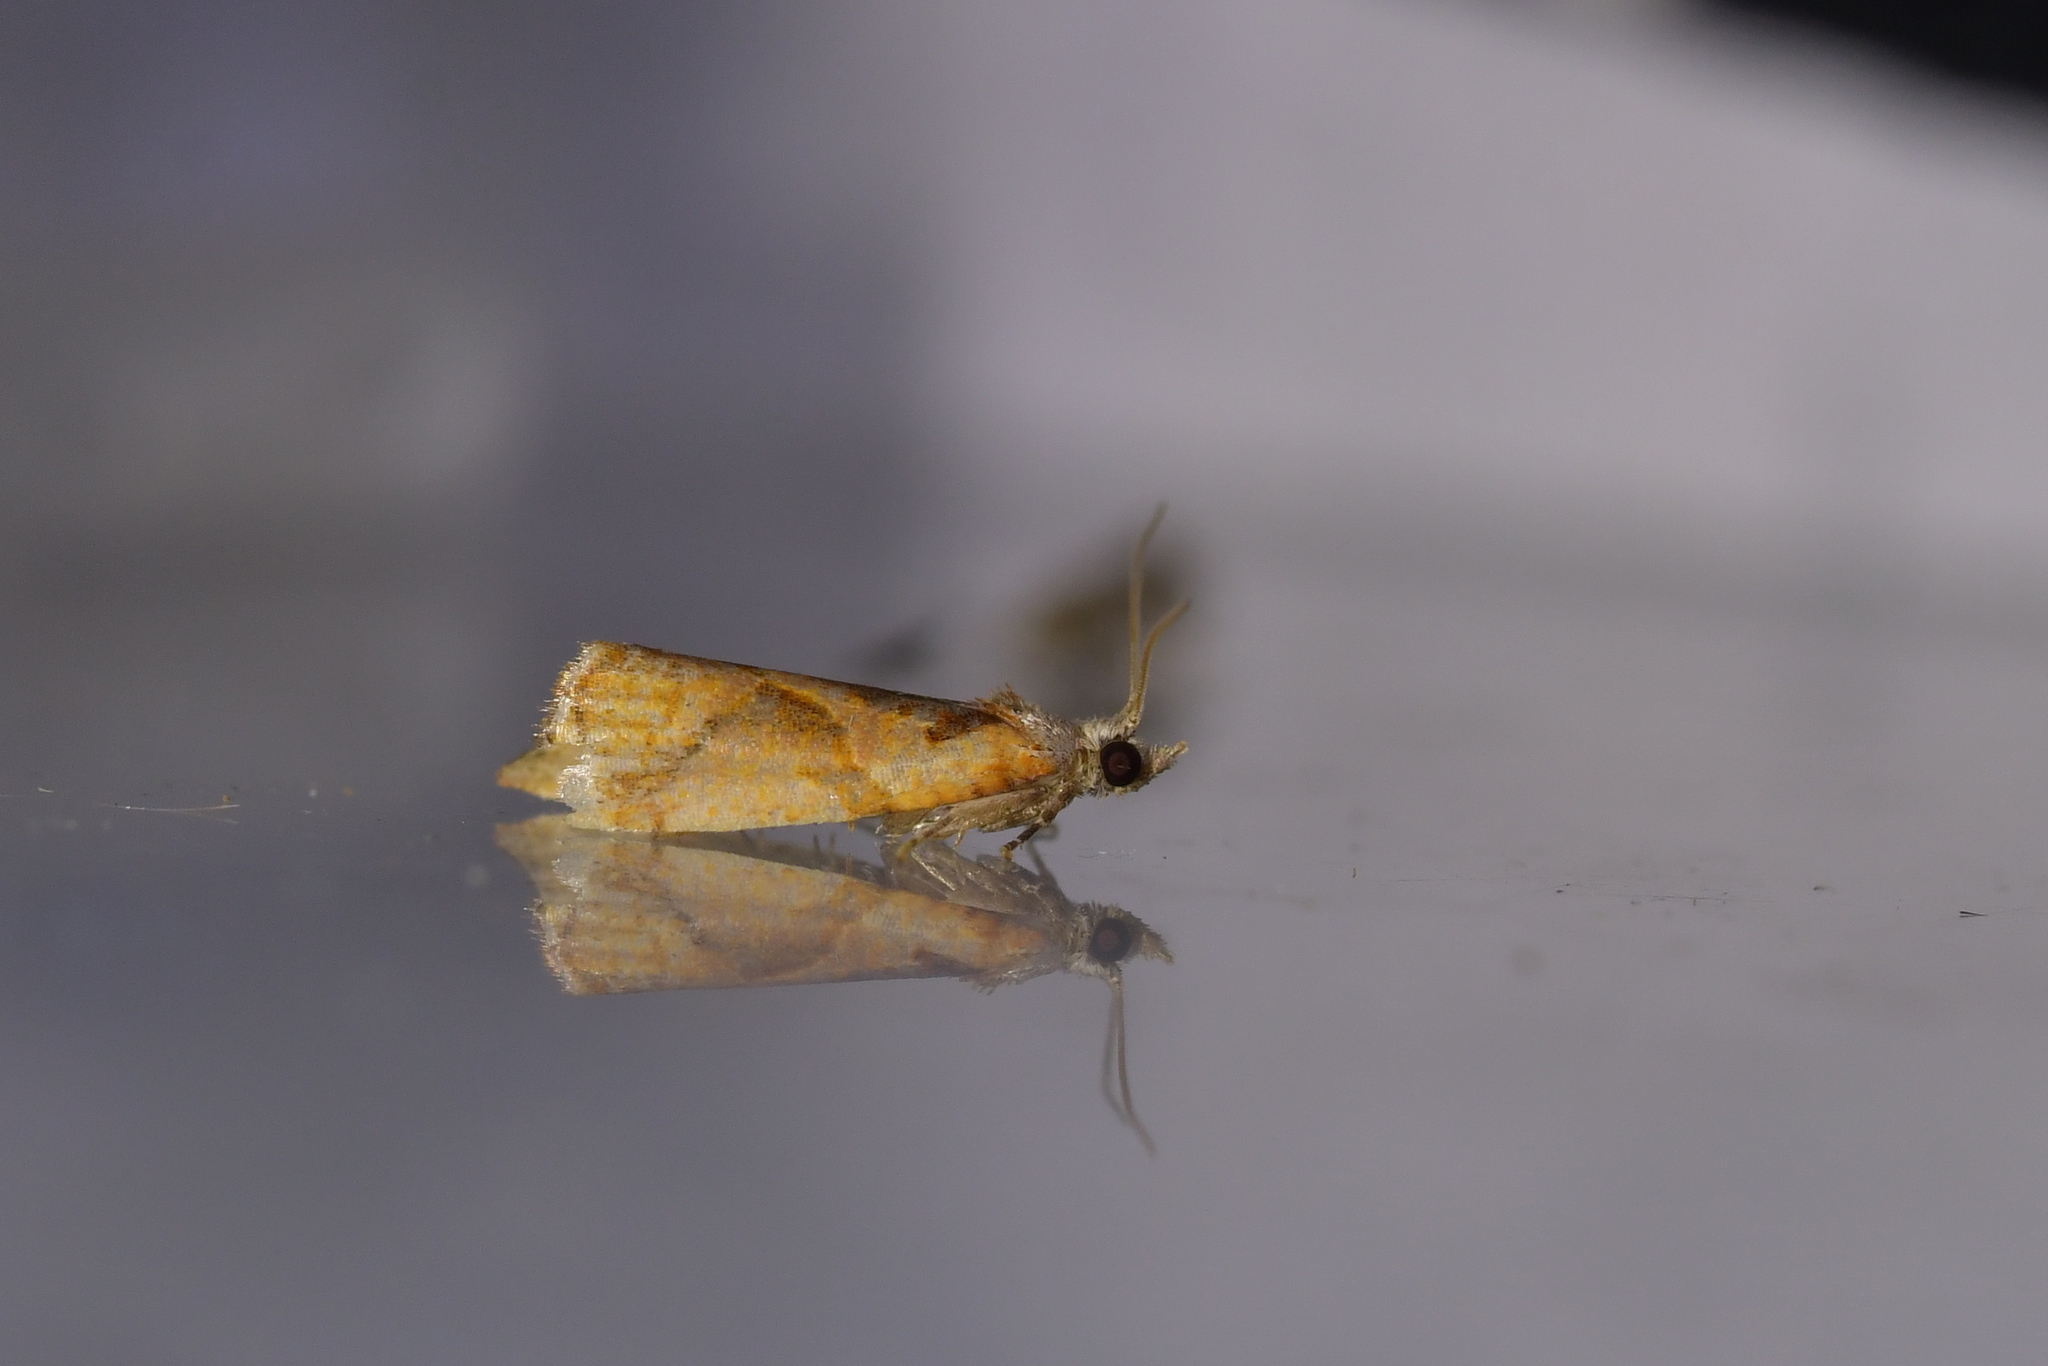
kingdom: Animalia
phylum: Arthropoda
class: Insecta
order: Lepidoptera
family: Tortricidae
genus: Pyrgotis
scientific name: Pyrgotis plagiatana
